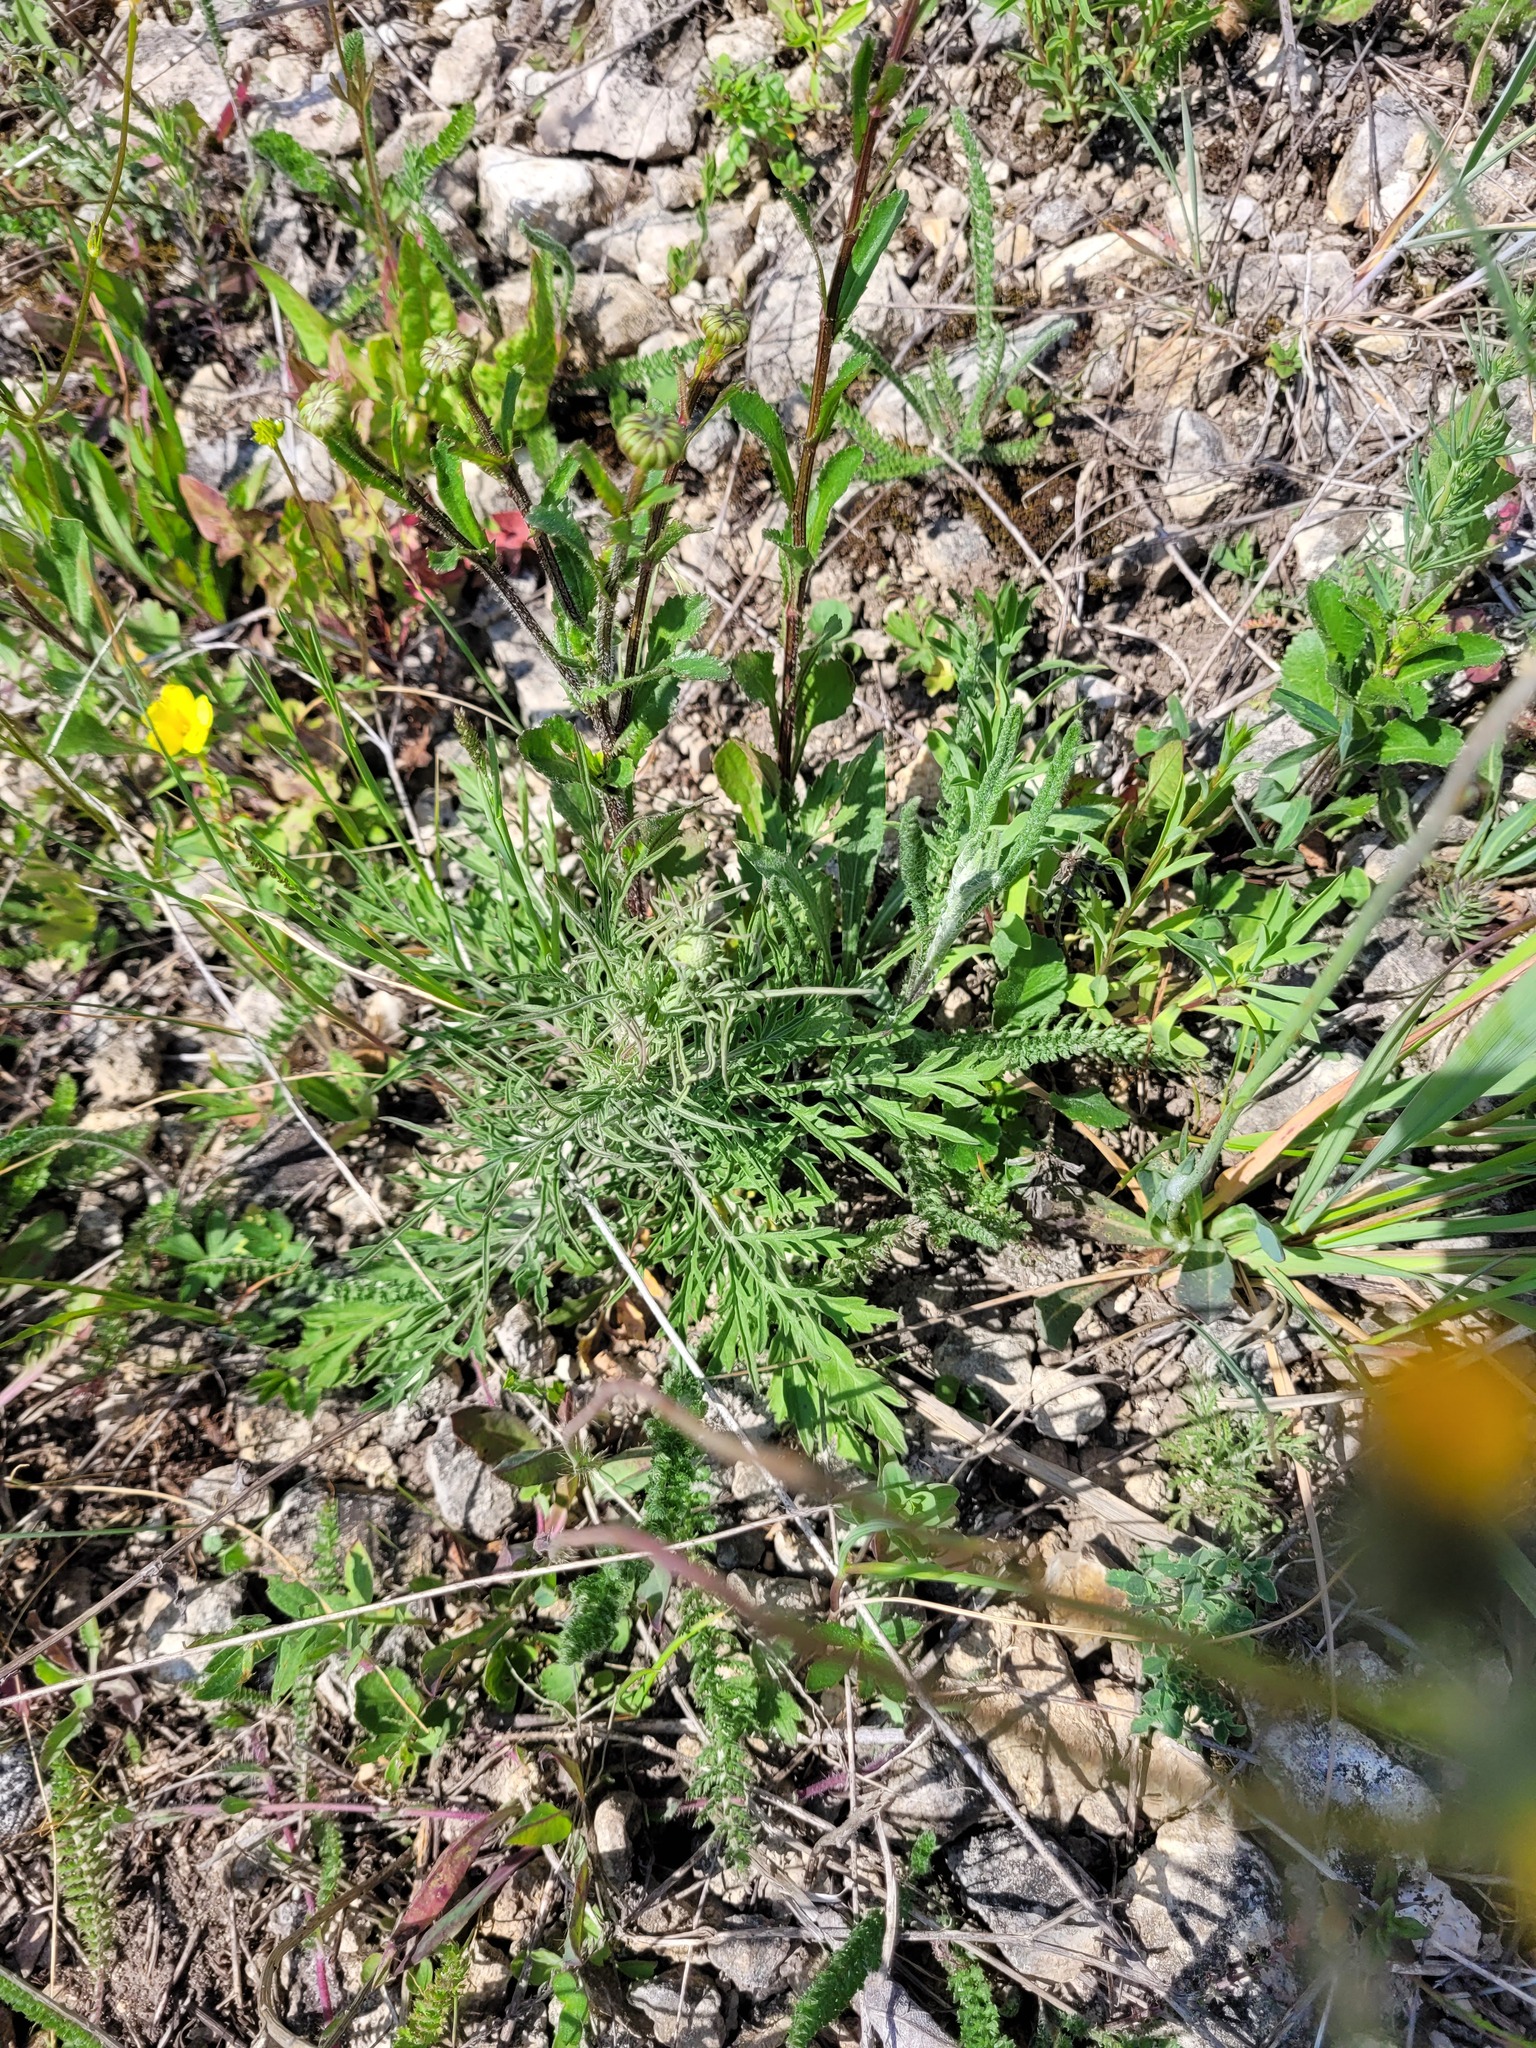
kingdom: Plantae
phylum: Tracheophyta
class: Magnoliopsida
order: Dipsacales
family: Caprifoliaceae
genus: Scabiosa
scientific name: Scabiosa ochroleuca
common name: Cream pincushions
